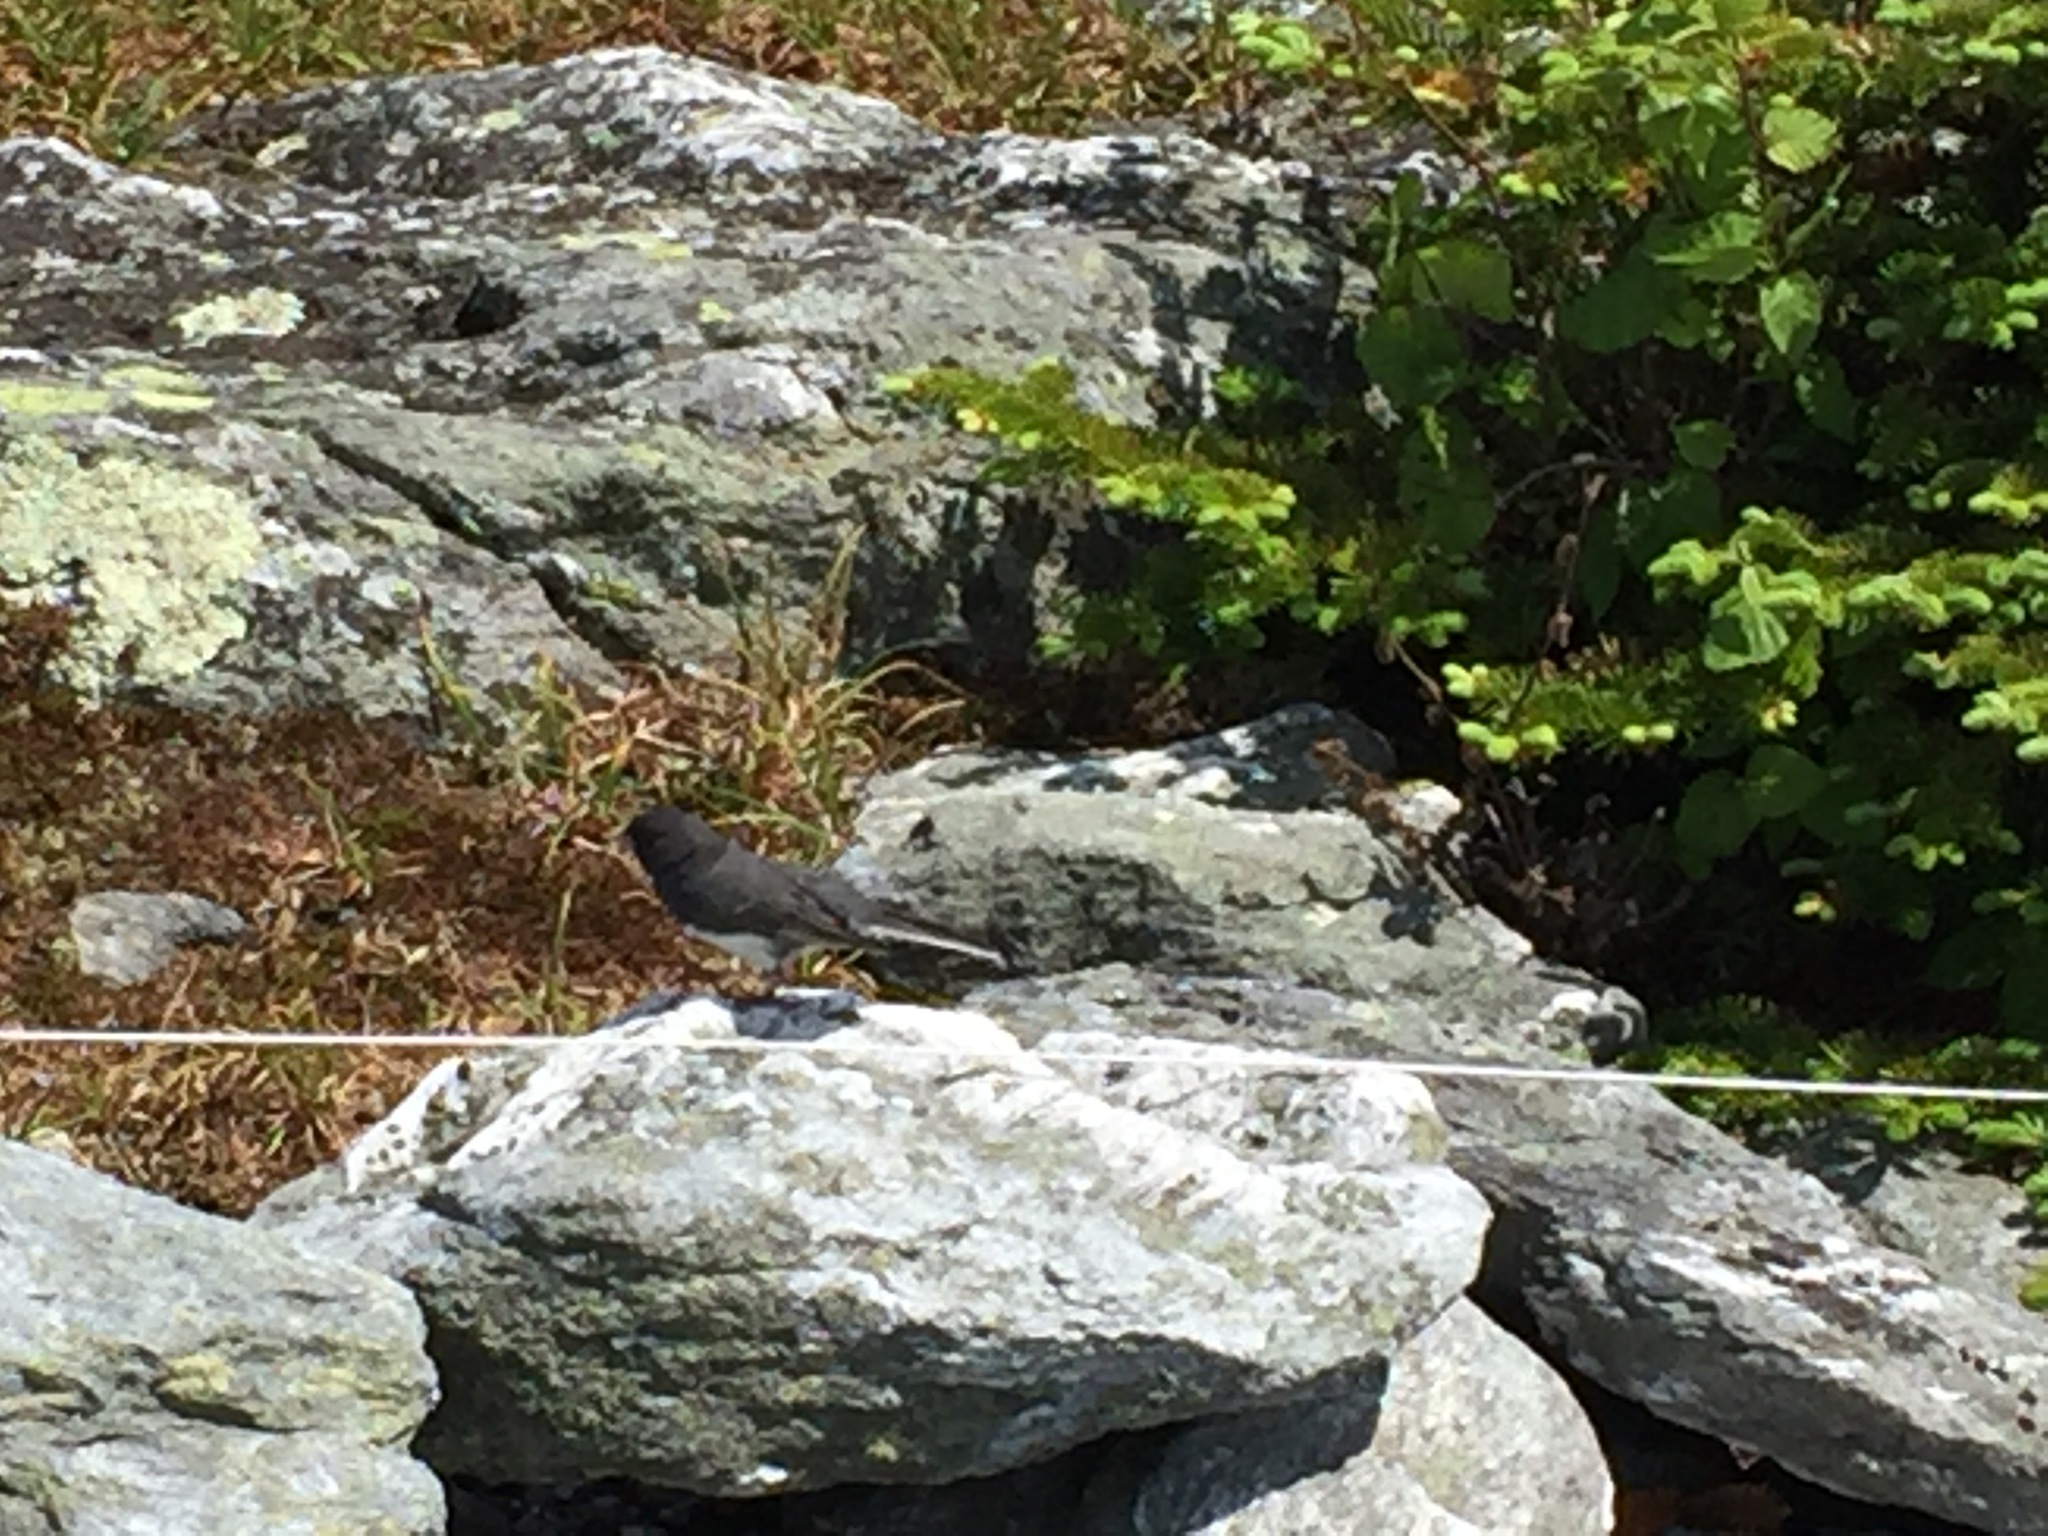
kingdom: Animalia
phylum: Chordata
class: Aves
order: Passeriformes
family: Passerellidae
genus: Junco
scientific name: Junco hyemalis
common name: Dark-eyed junco
